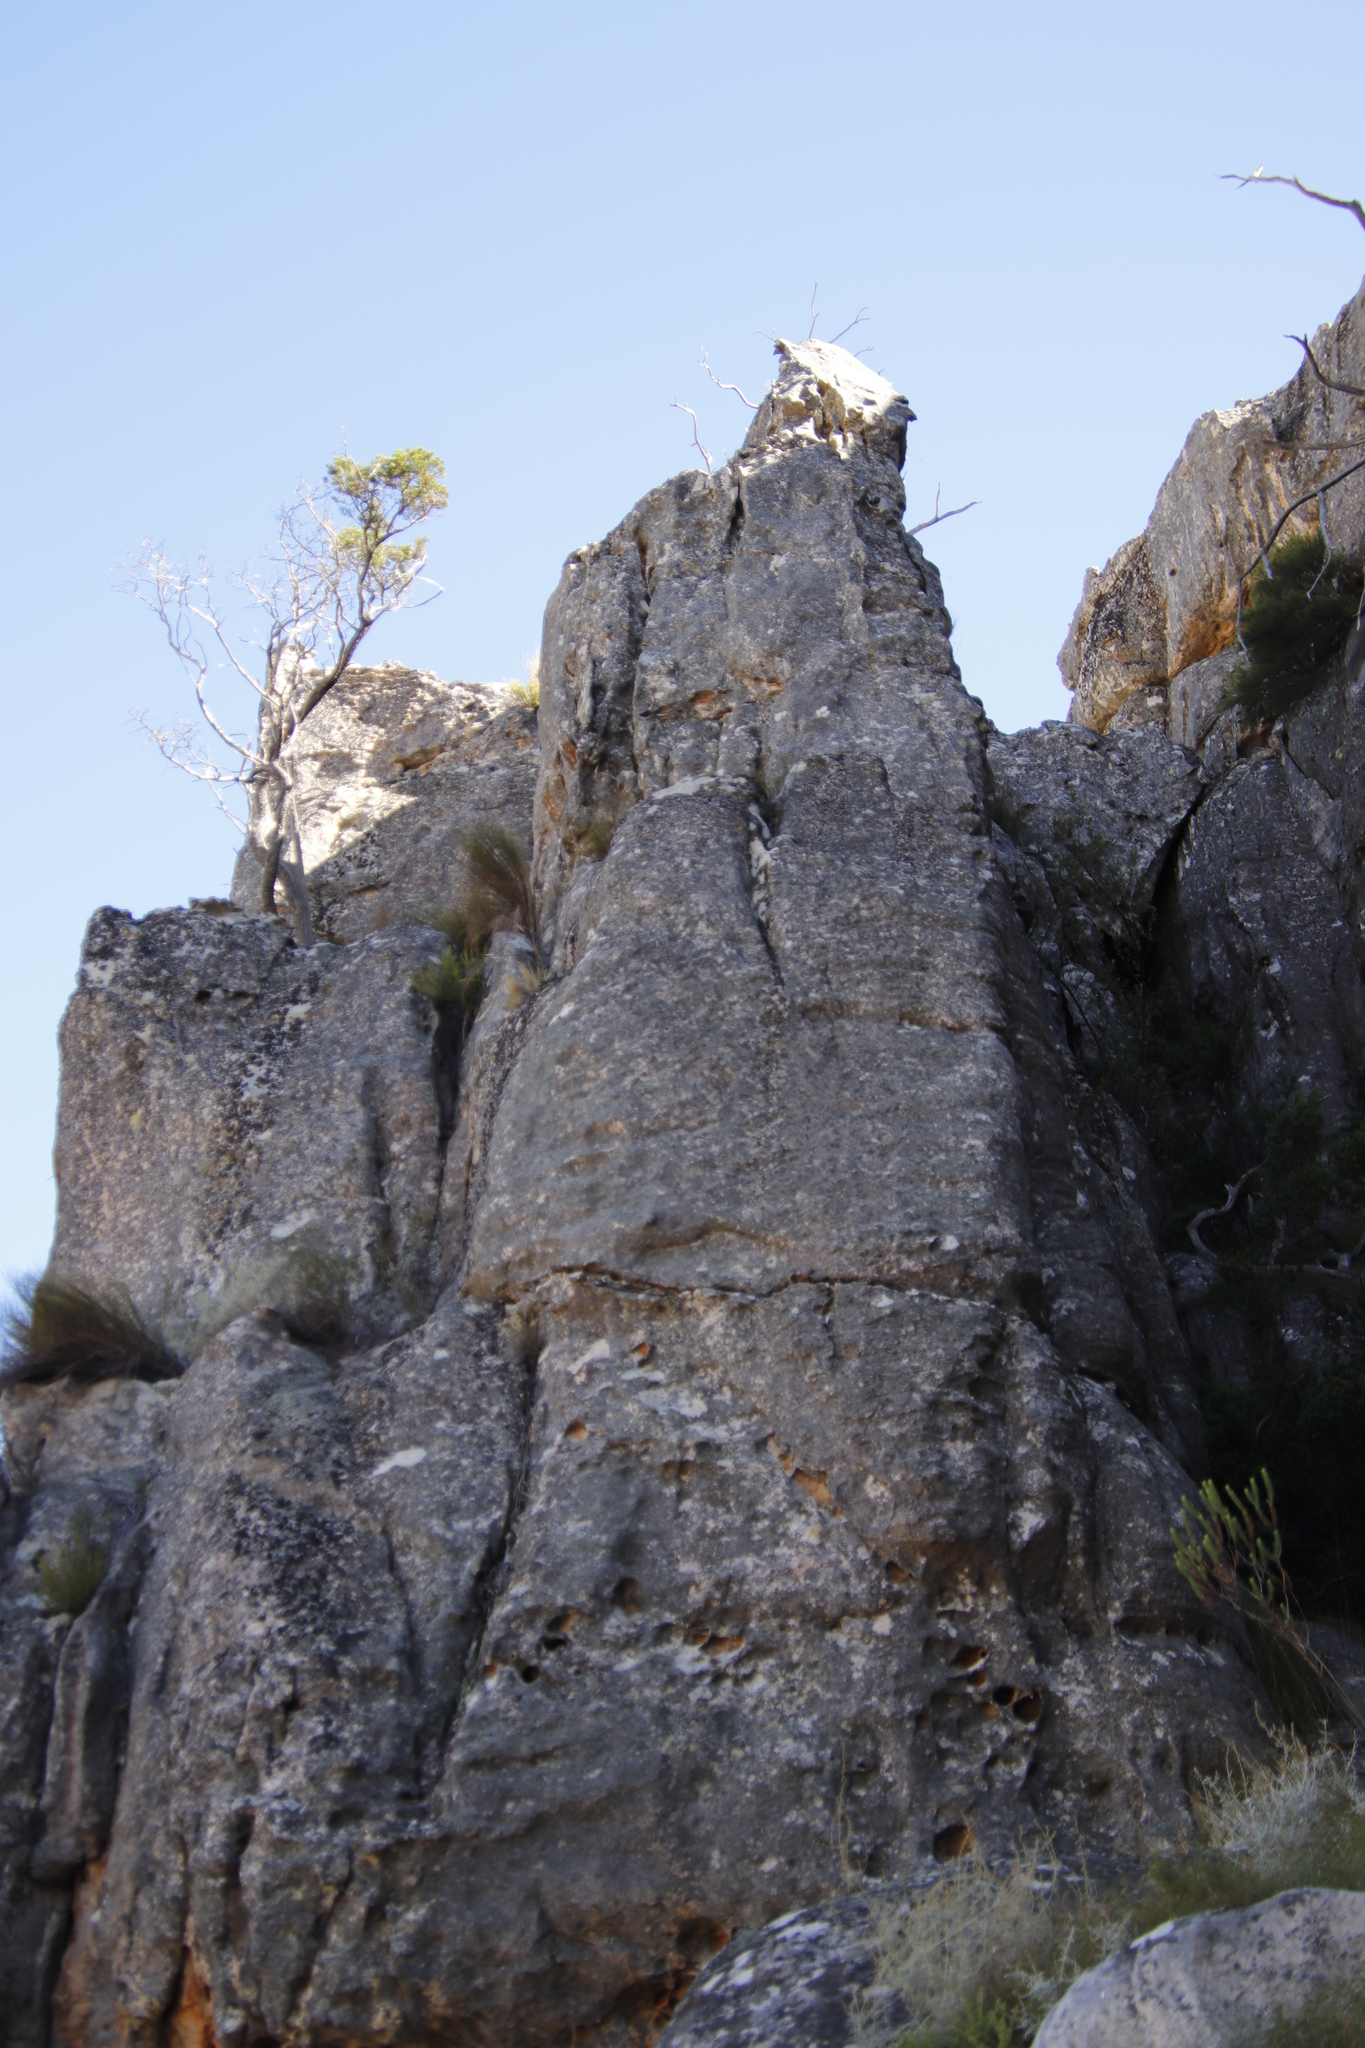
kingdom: Plantae
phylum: Tracheophyta
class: Pinopsida
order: Pinales
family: Cupressaceae
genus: Widdringtonia
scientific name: Widdringtonia nodiflora
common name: Cape cypress
